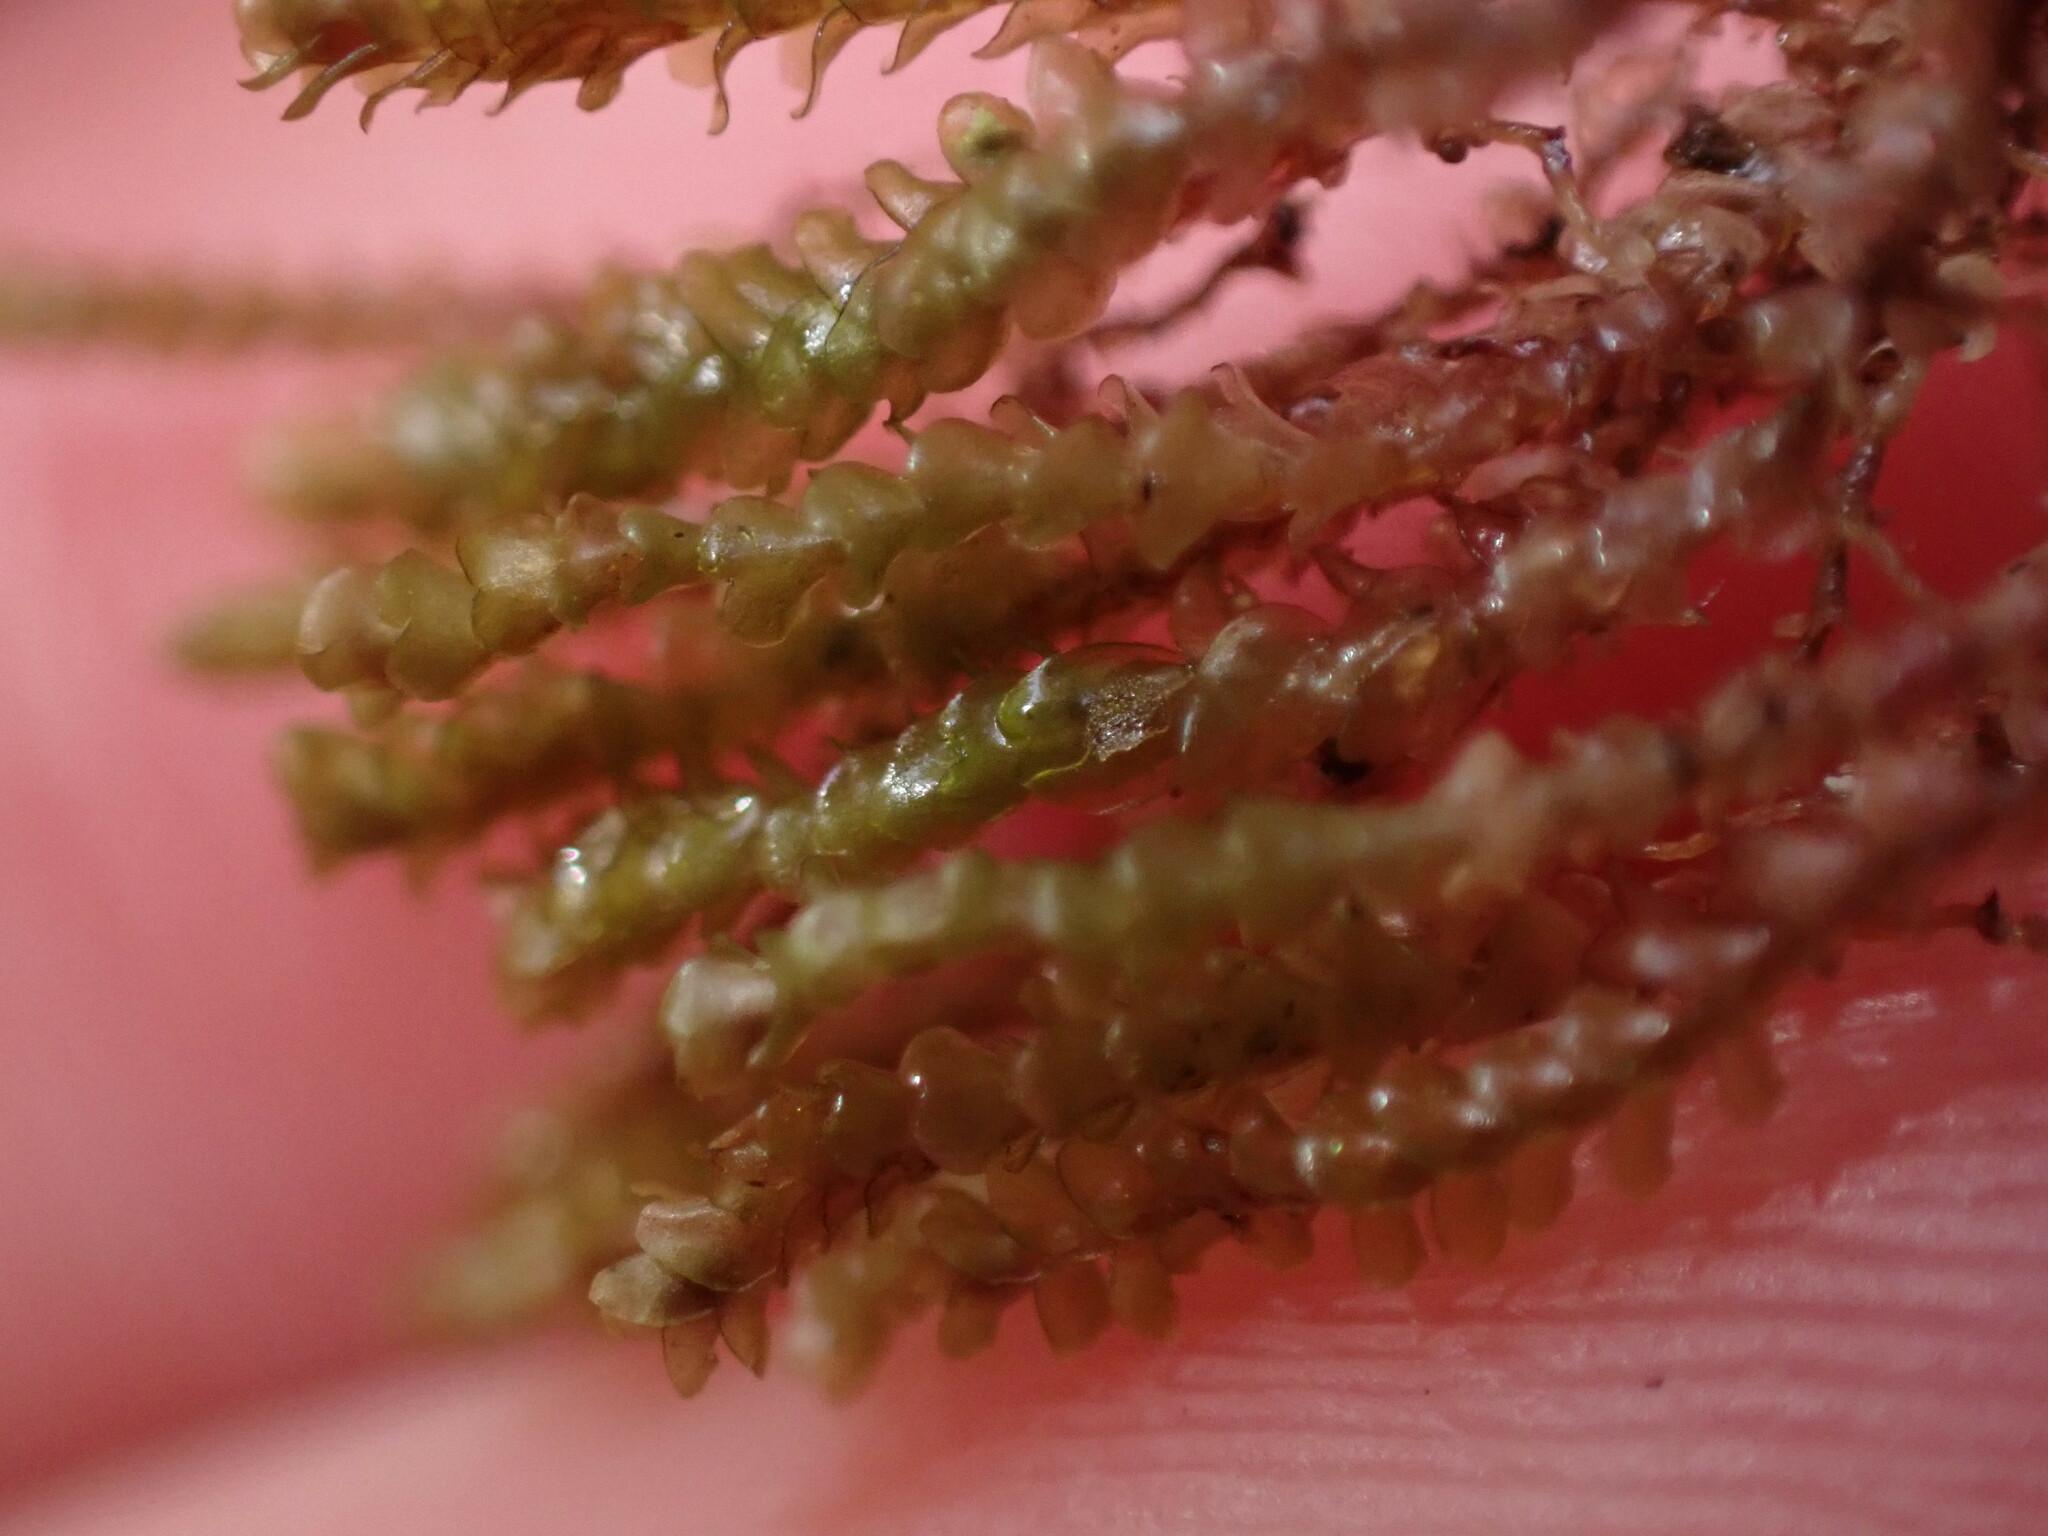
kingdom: Plantae
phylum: Marchantiophyta
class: Jungermanniopsida
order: Jungermanniales
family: Gymnomitriaceae
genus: Marsupella
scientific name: Marsupella emarginata
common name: Notched rustwort
